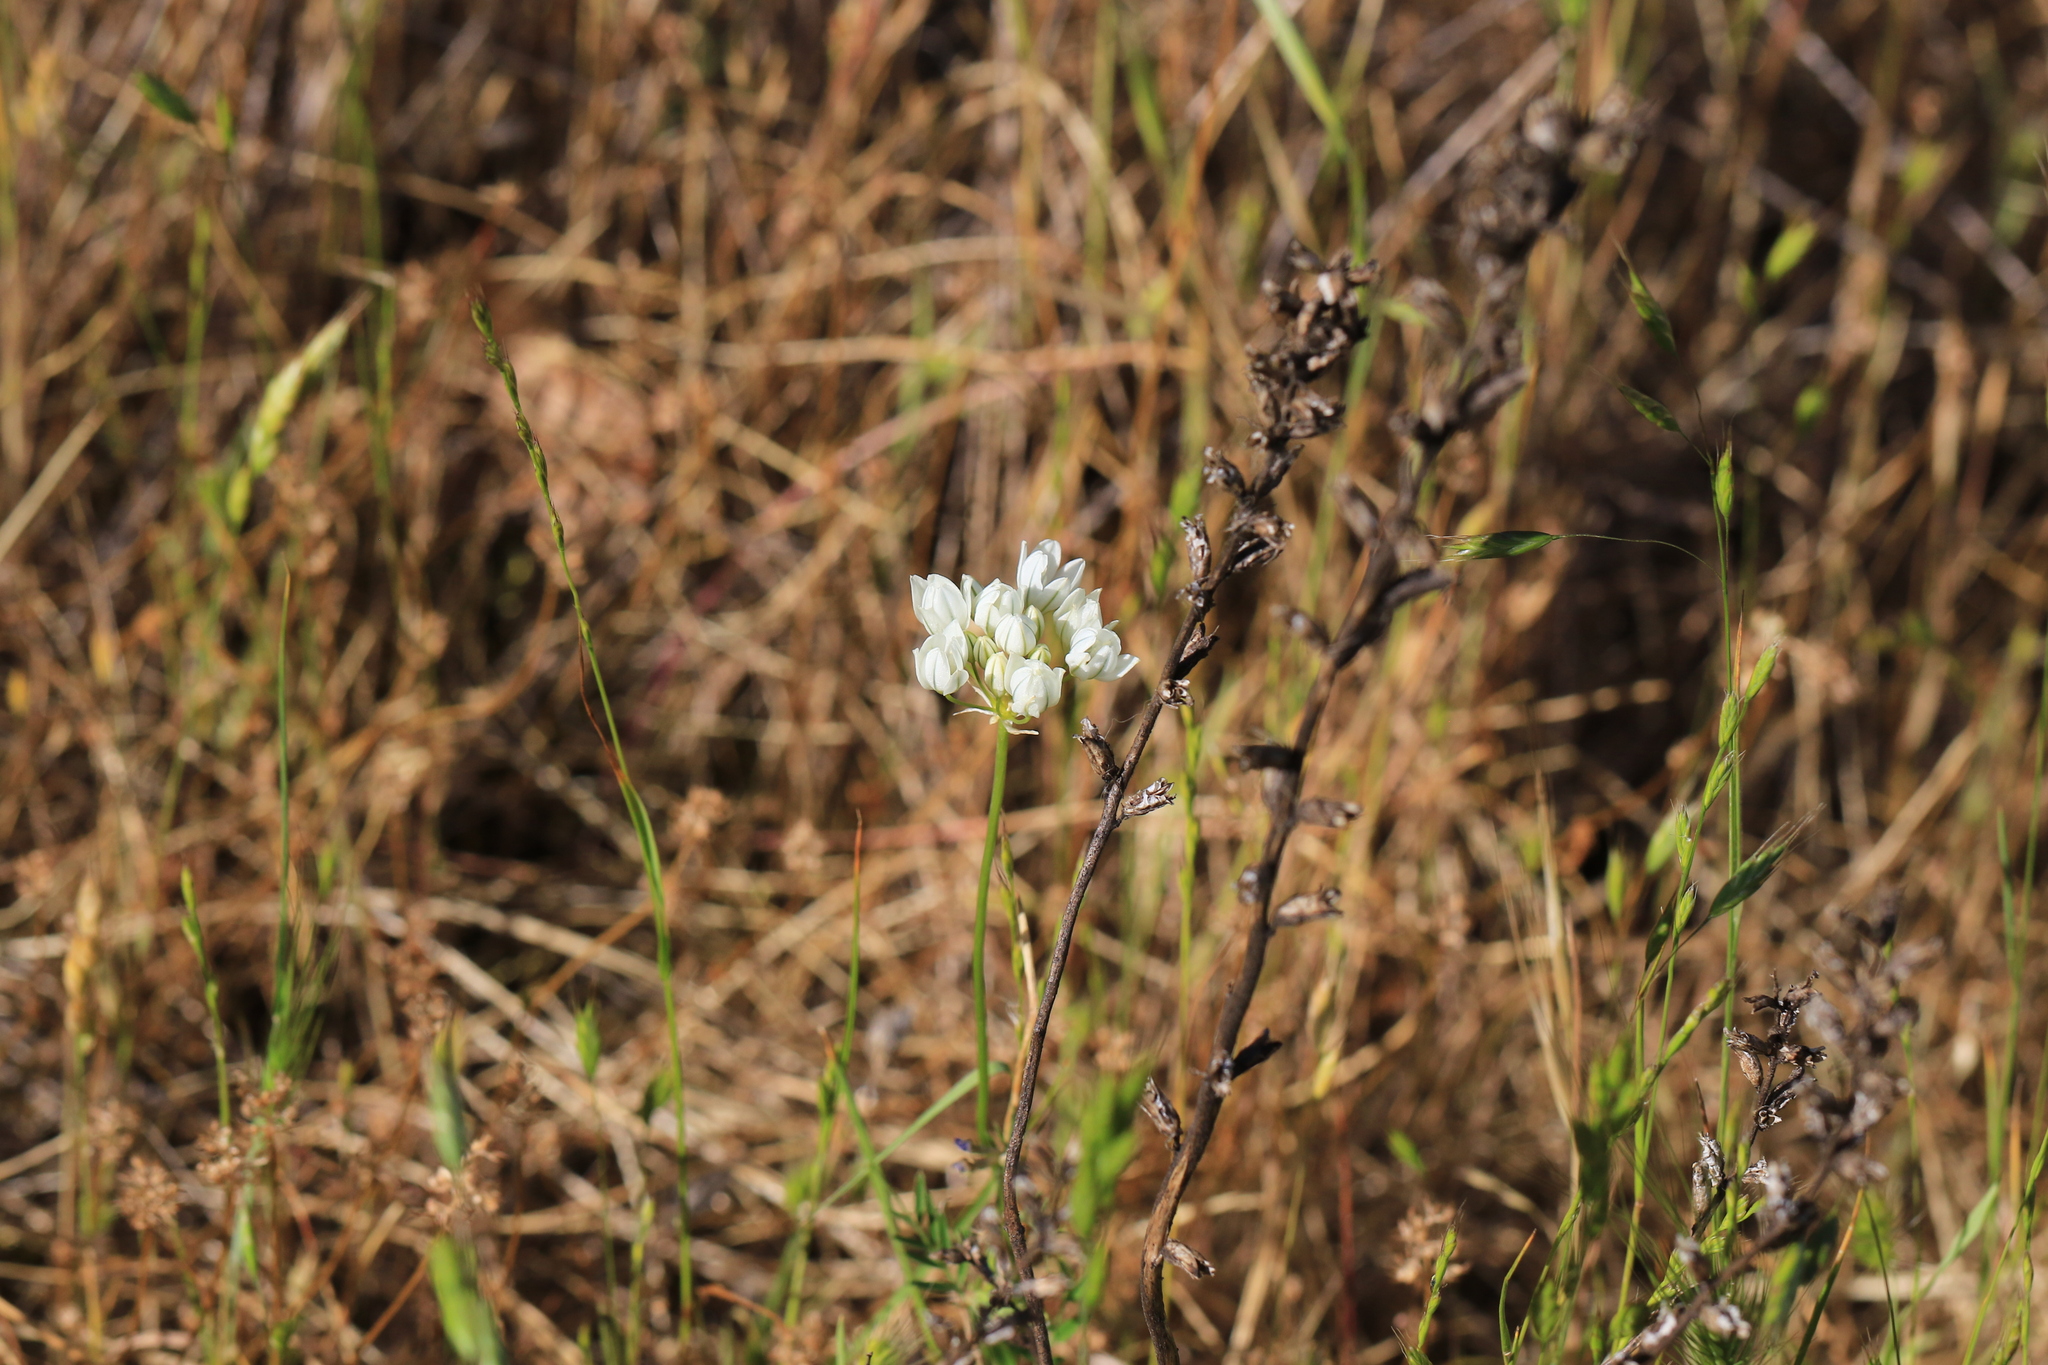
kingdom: Plantae
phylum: Tracheophyta
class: Liliopsida
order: Asparagales
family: Asparagaceae
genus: Triteleia
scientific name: Triteleia hyacinthina
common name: White brodiaea
